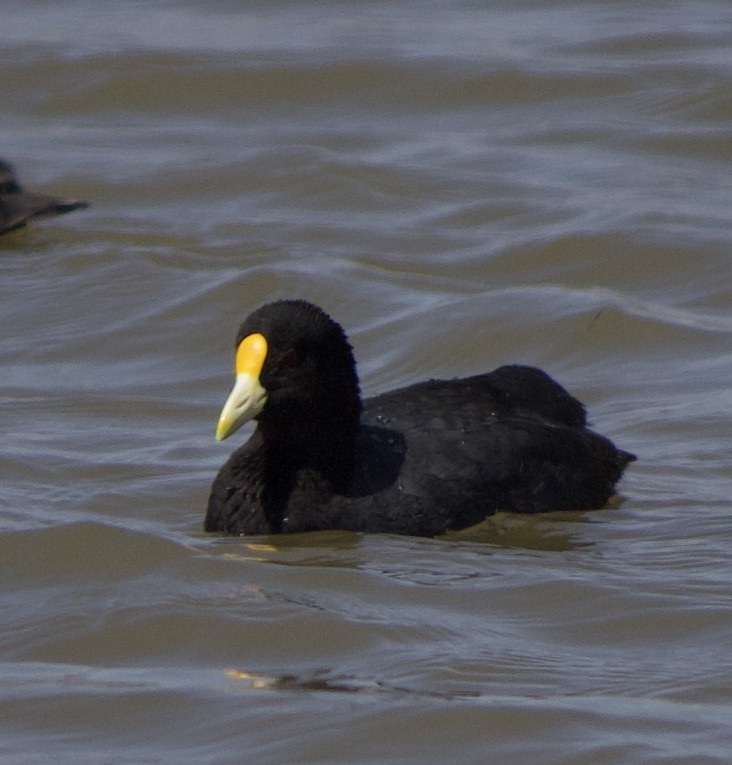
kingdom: Animalia
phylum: Chordata
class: Aves
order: Gruiformes
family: Rallidae
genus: Fulica
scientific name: Fulica leucoptera
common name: White-winged coot
